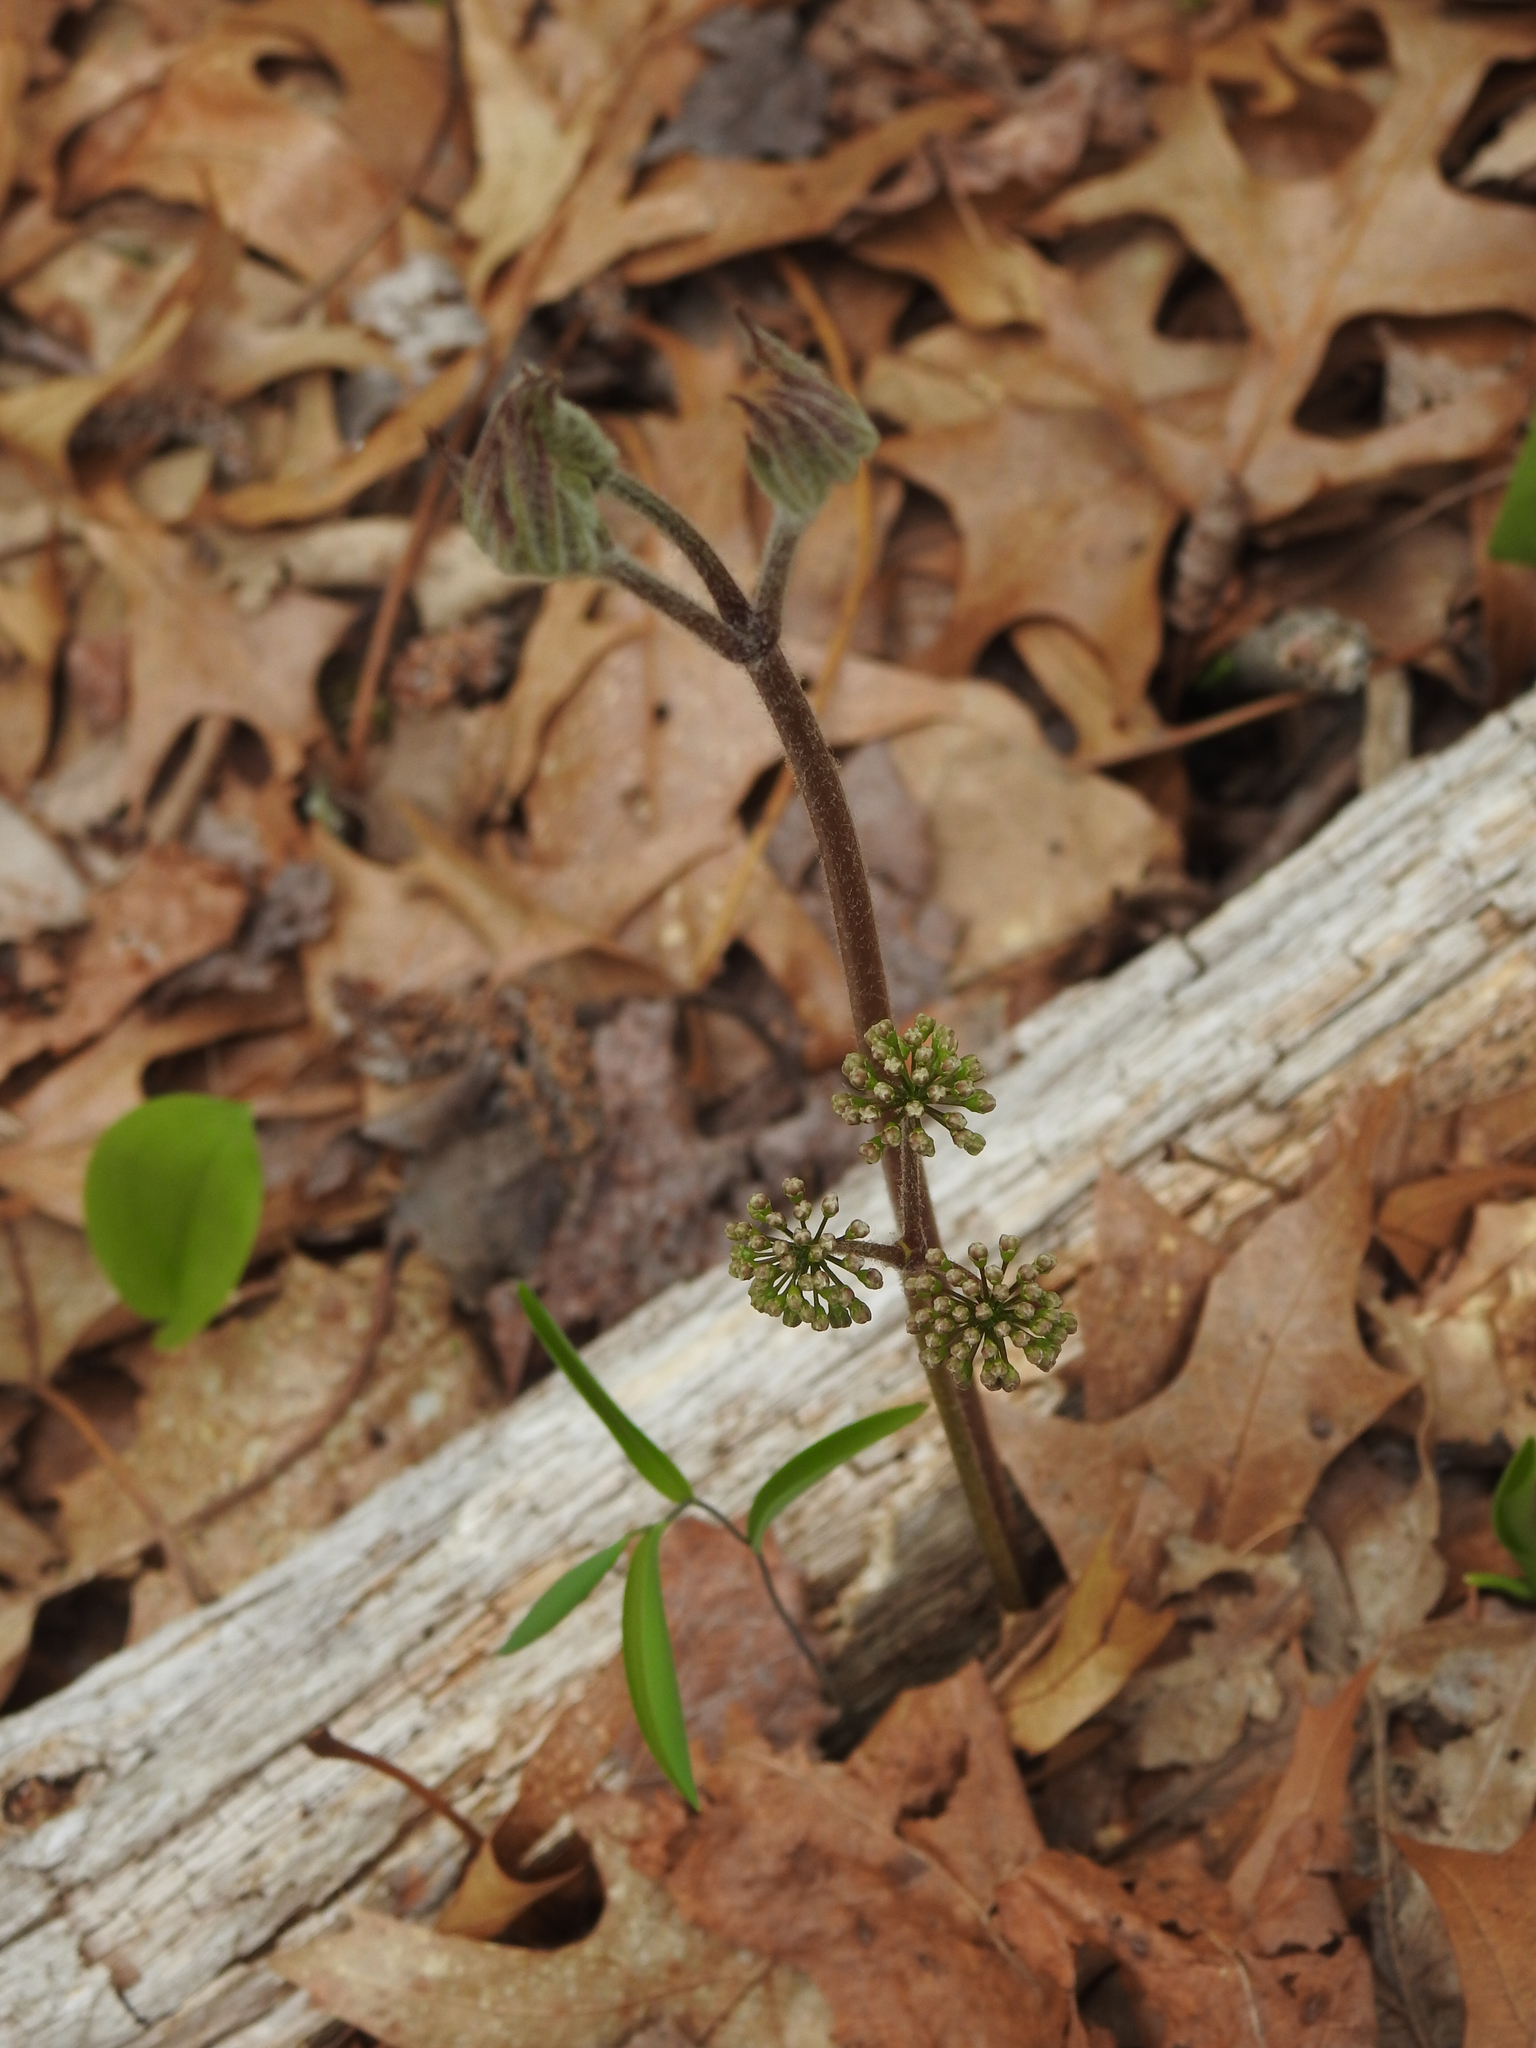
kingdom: Plantae
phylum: Tracheophyta
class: Magnoliopsida
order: Apiales
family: Araliaceae
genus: Aralia
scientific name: Aralia nudicaulis
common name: Wild sarsaparilla
